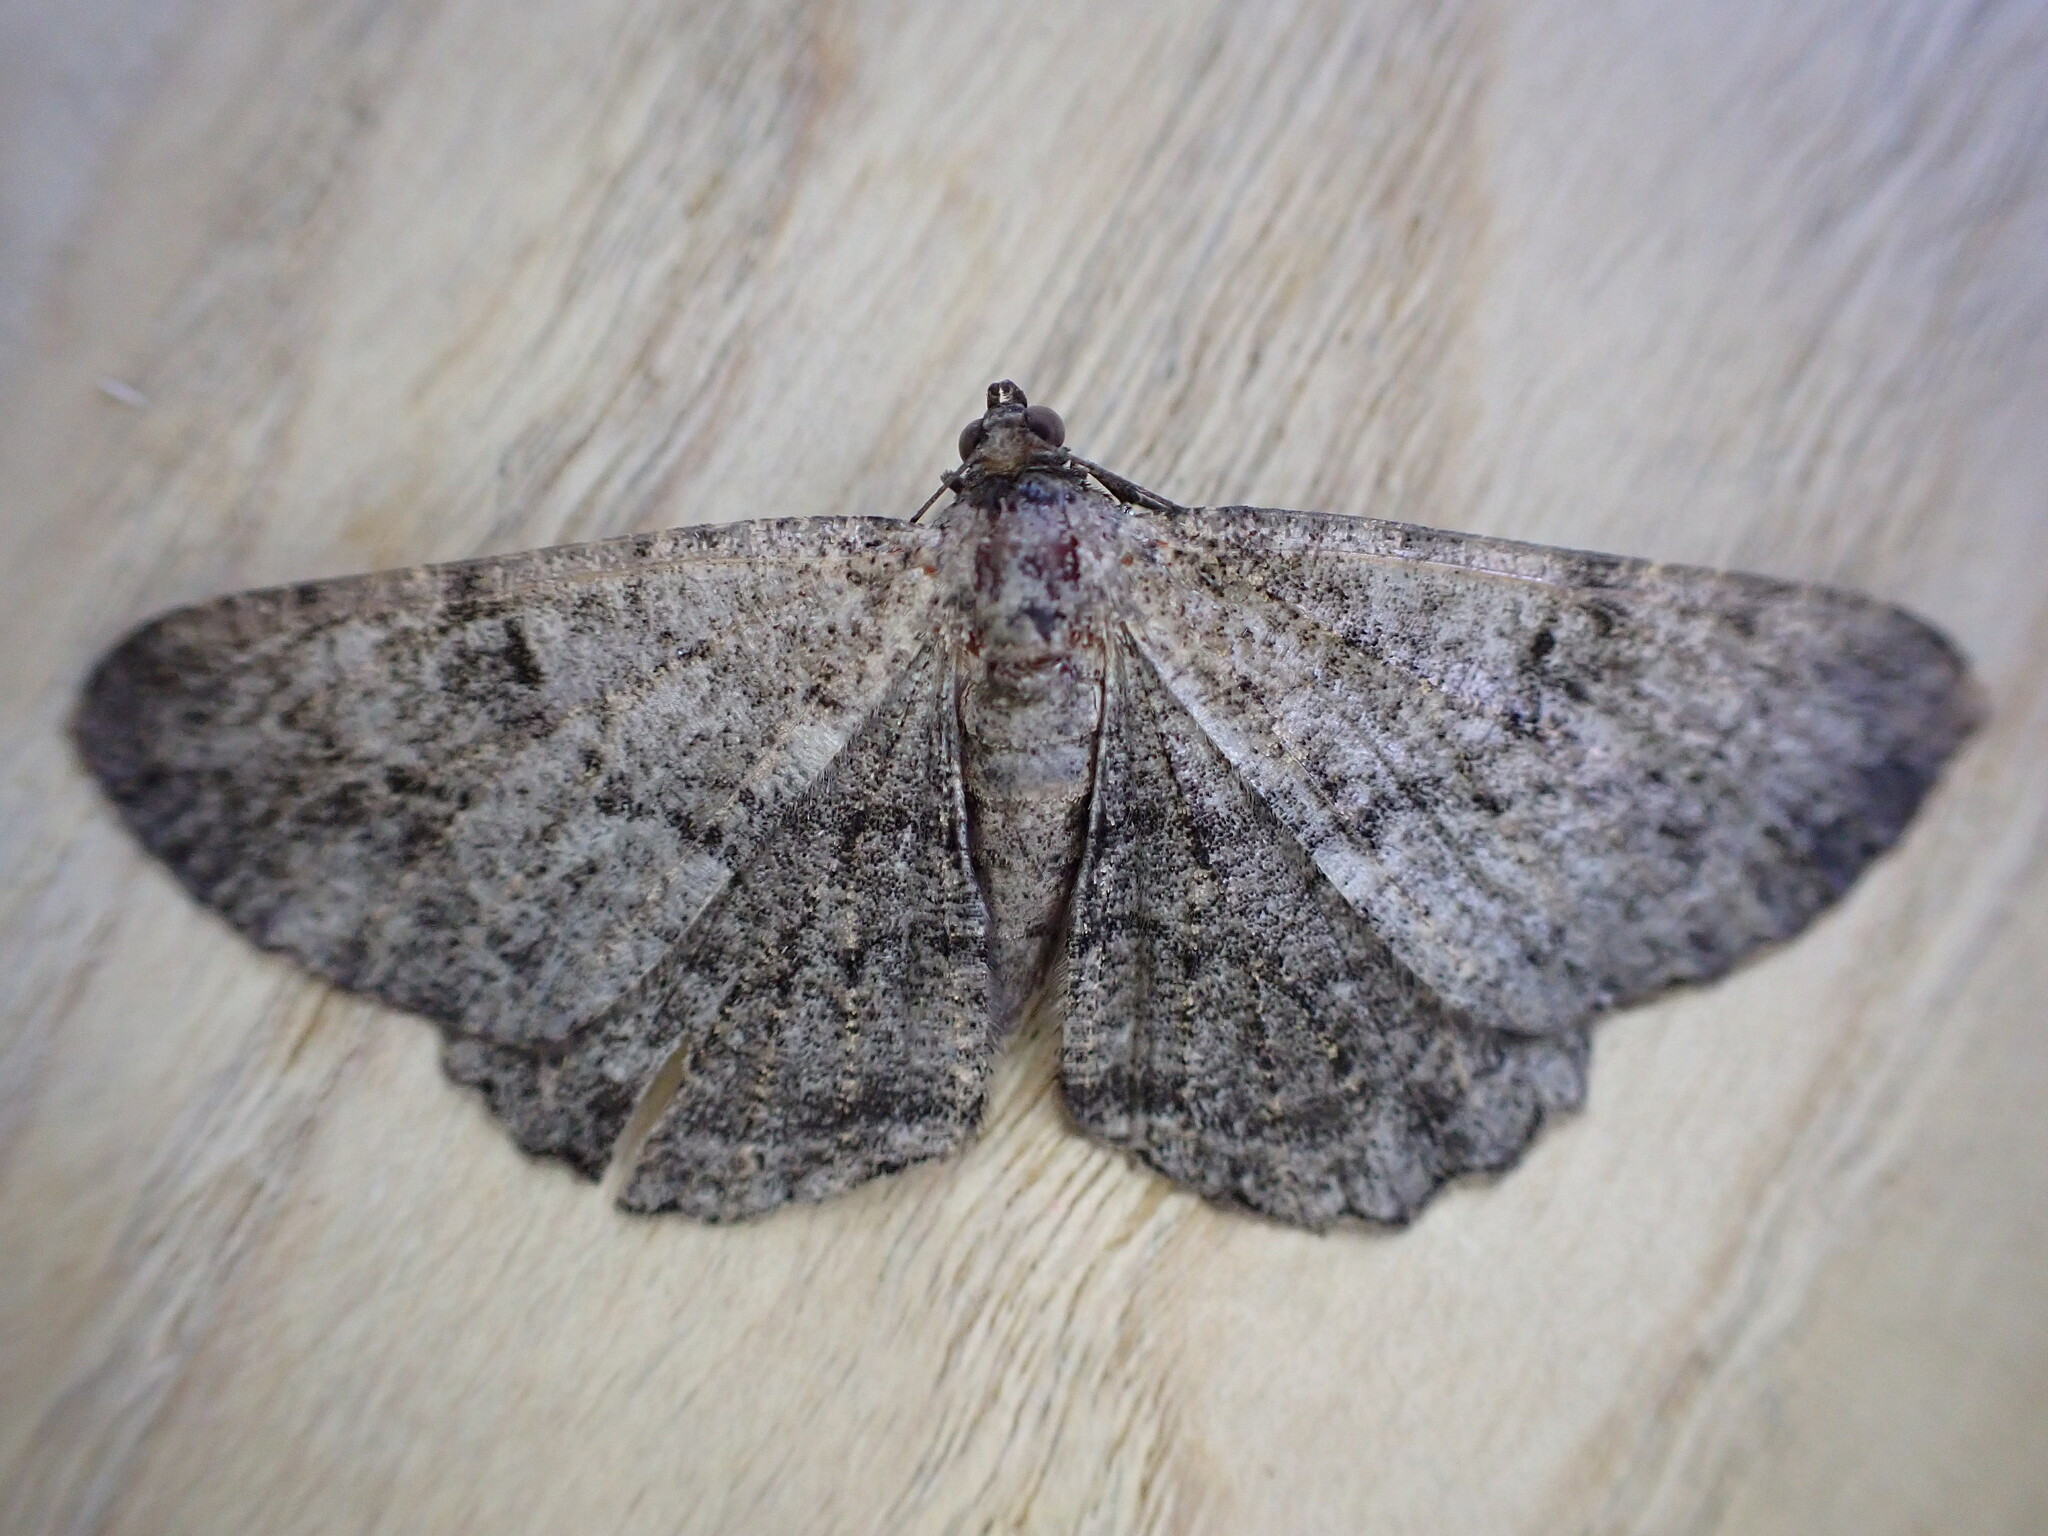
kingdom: Animalia
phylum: Arthropoda
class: Insecta
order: Lepidoptera
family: Geometridae
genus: Peribatodes
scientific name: Peribatodes rhomboidaria
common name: Willow beauty
